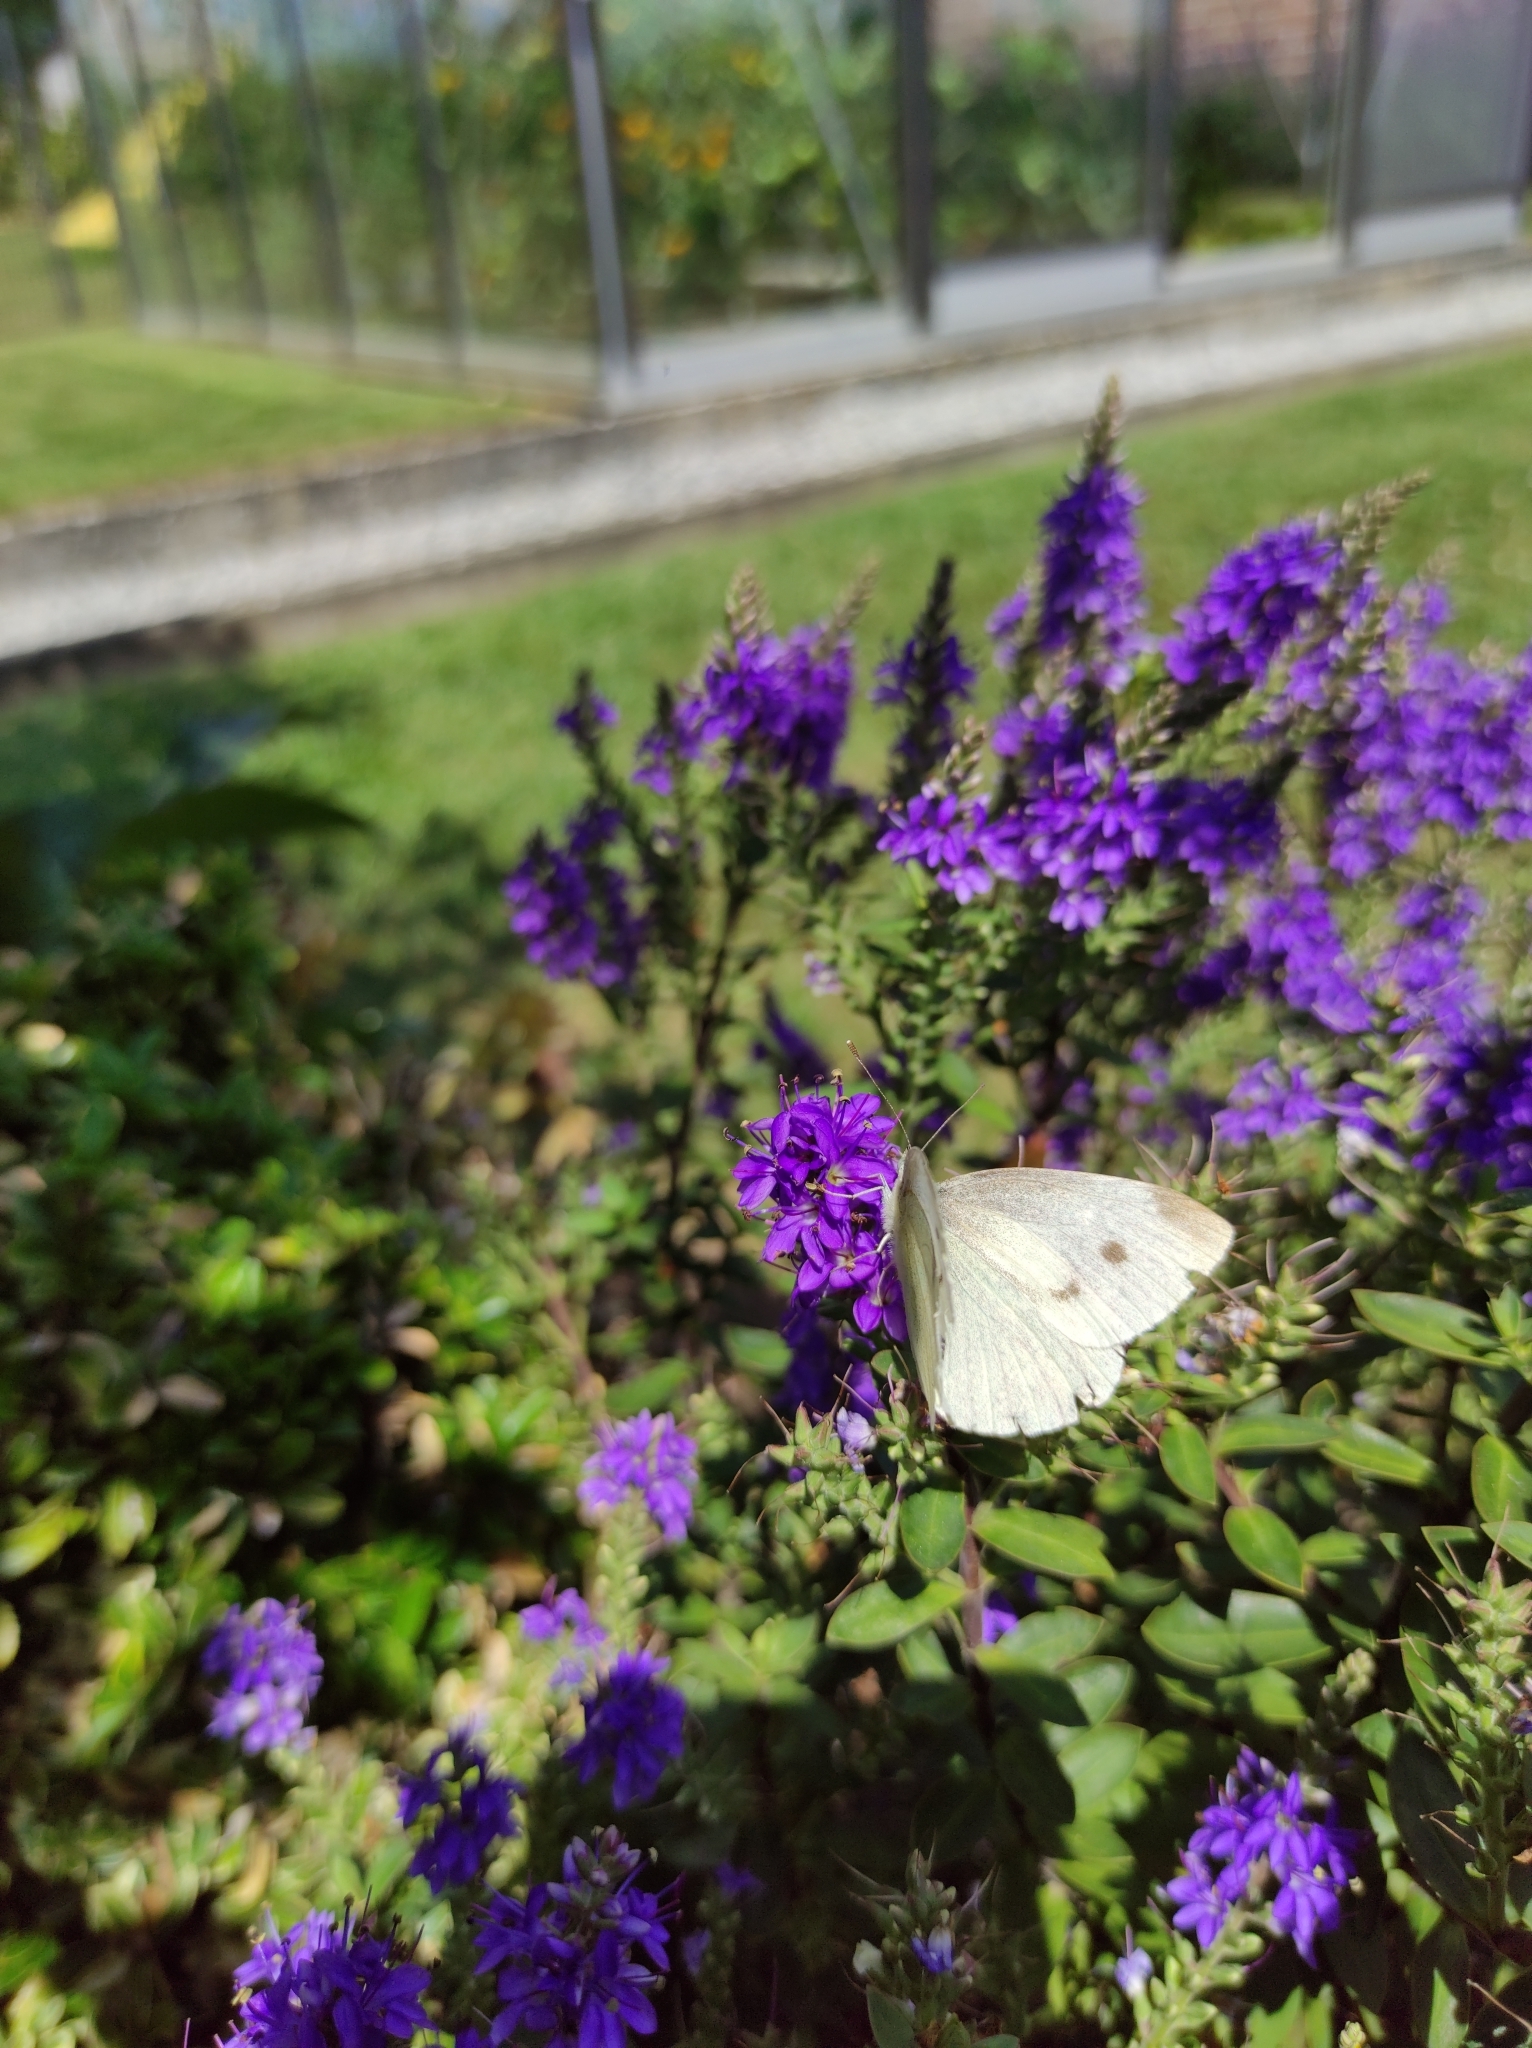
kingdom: Animalia
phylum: Arthropoda
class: Insecta
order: Lepidoptera
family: Pieridae
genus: Pieris
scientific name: Pieris rapae
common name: Small white
